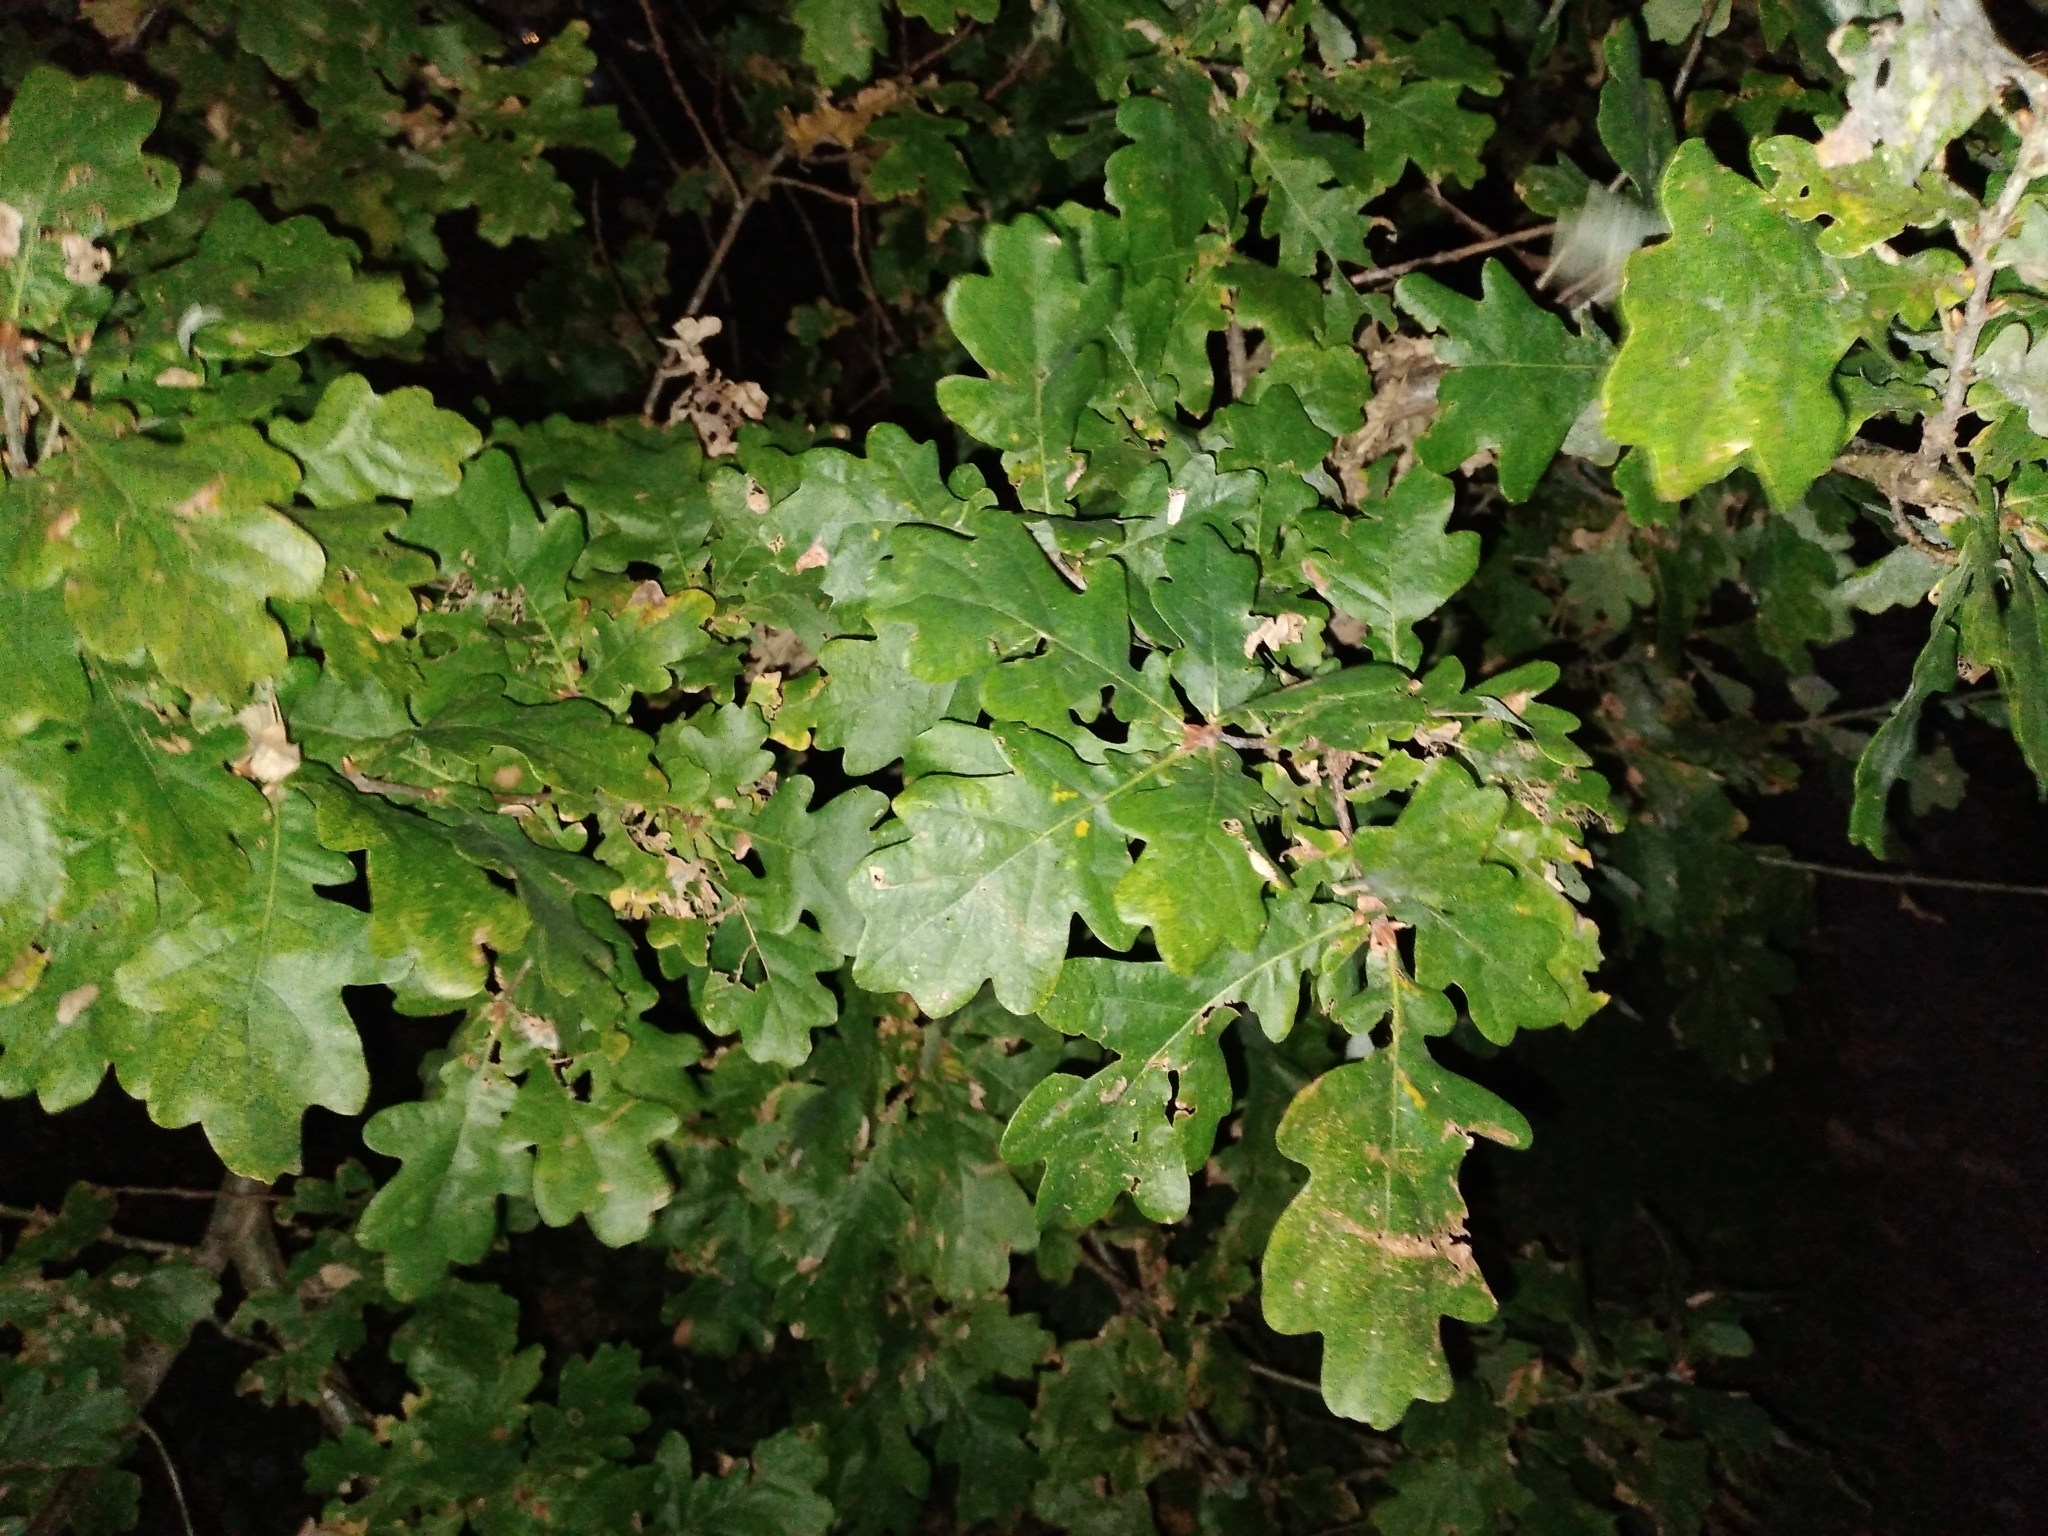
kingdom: Plantae
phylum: Tracheophyta
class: Magnoliopsida
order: Fagales
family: Fagaceae
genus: Quercus
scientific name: Quercus robur
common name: Pedunculate oak
